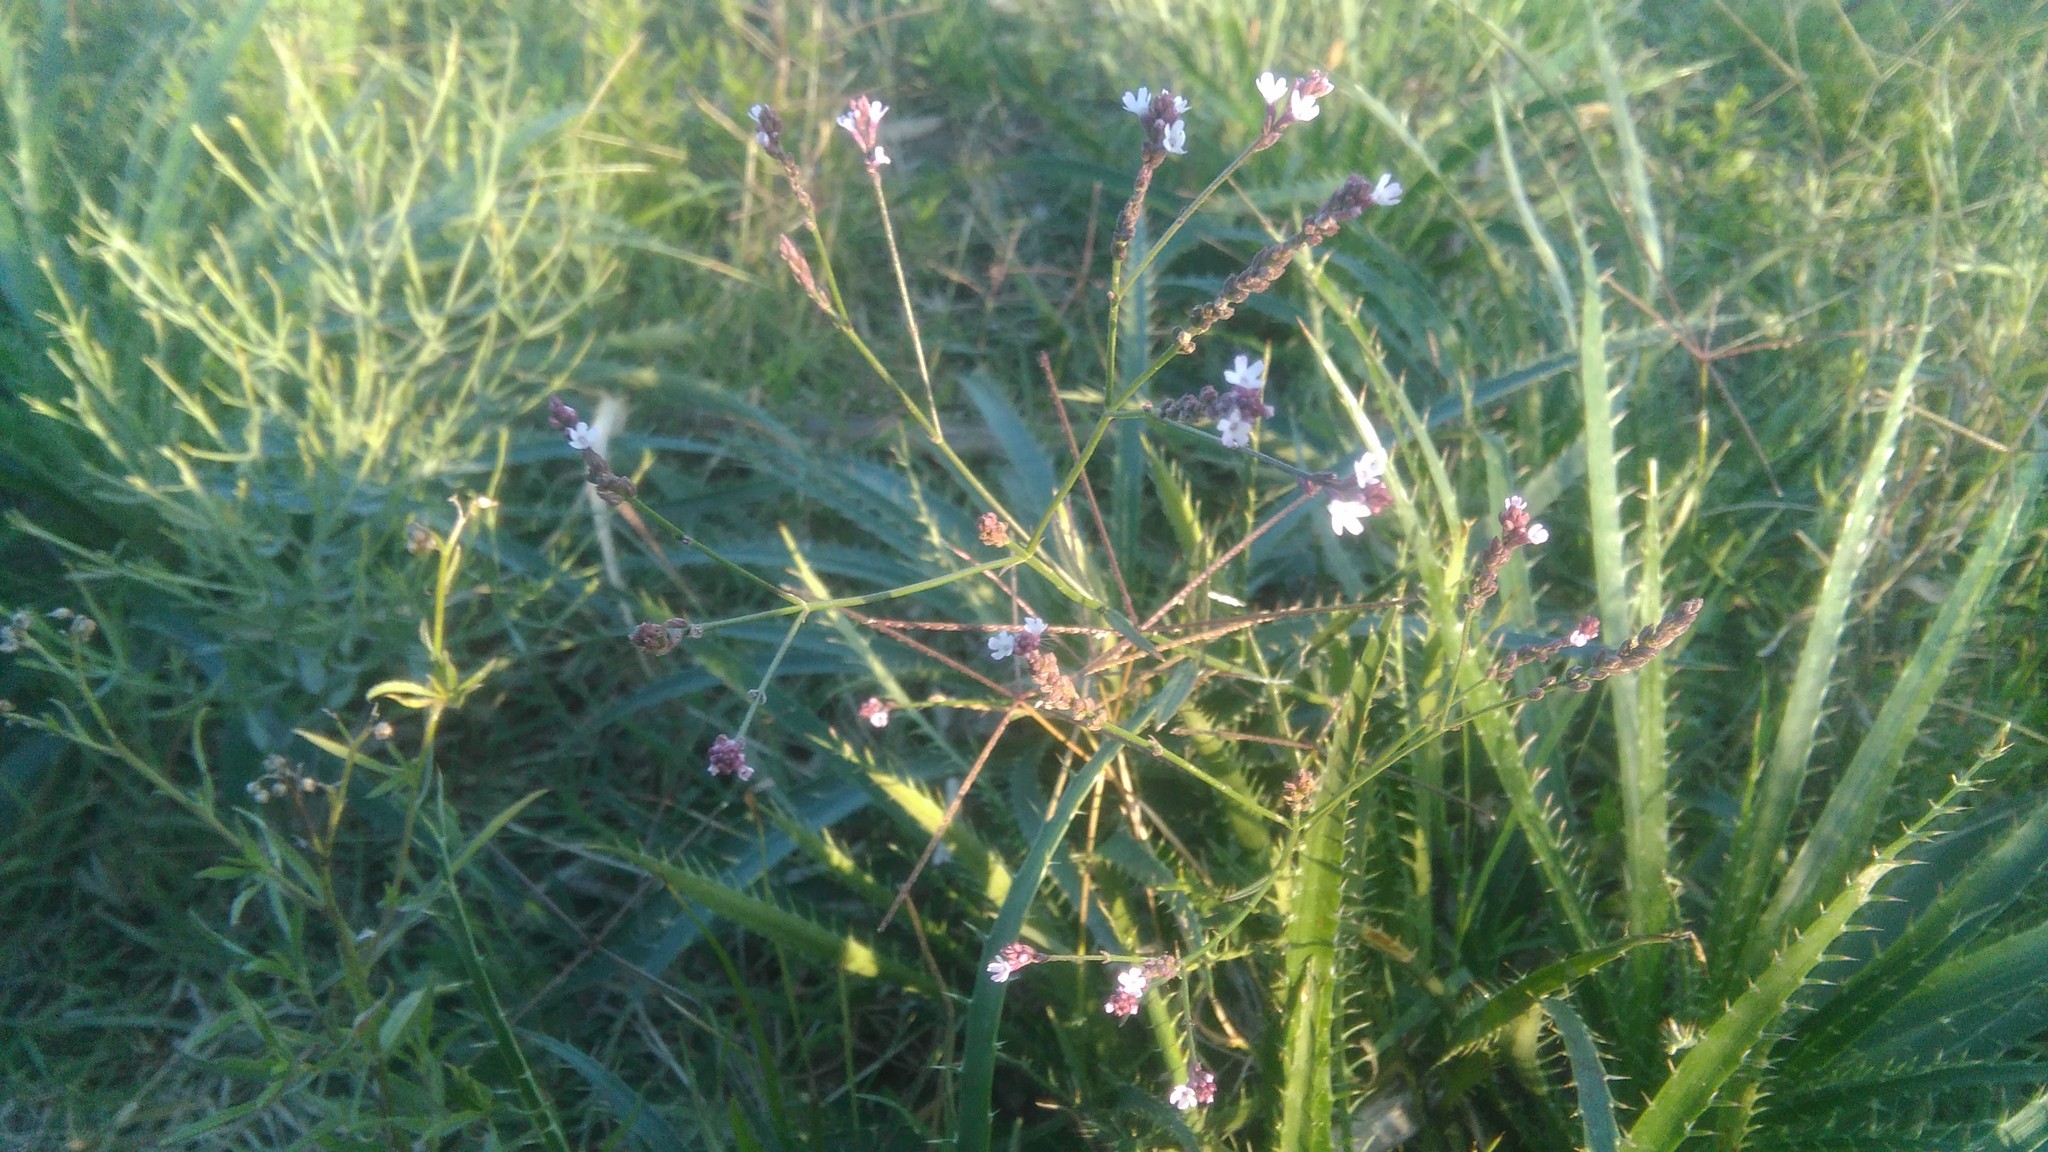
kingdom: Plantae
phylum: Tracheophyta
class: Magnoliopsida
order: Lamiales
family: Verbenaceae
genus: Verbena
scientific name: Verbena litoralis
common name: Seashore vervain
